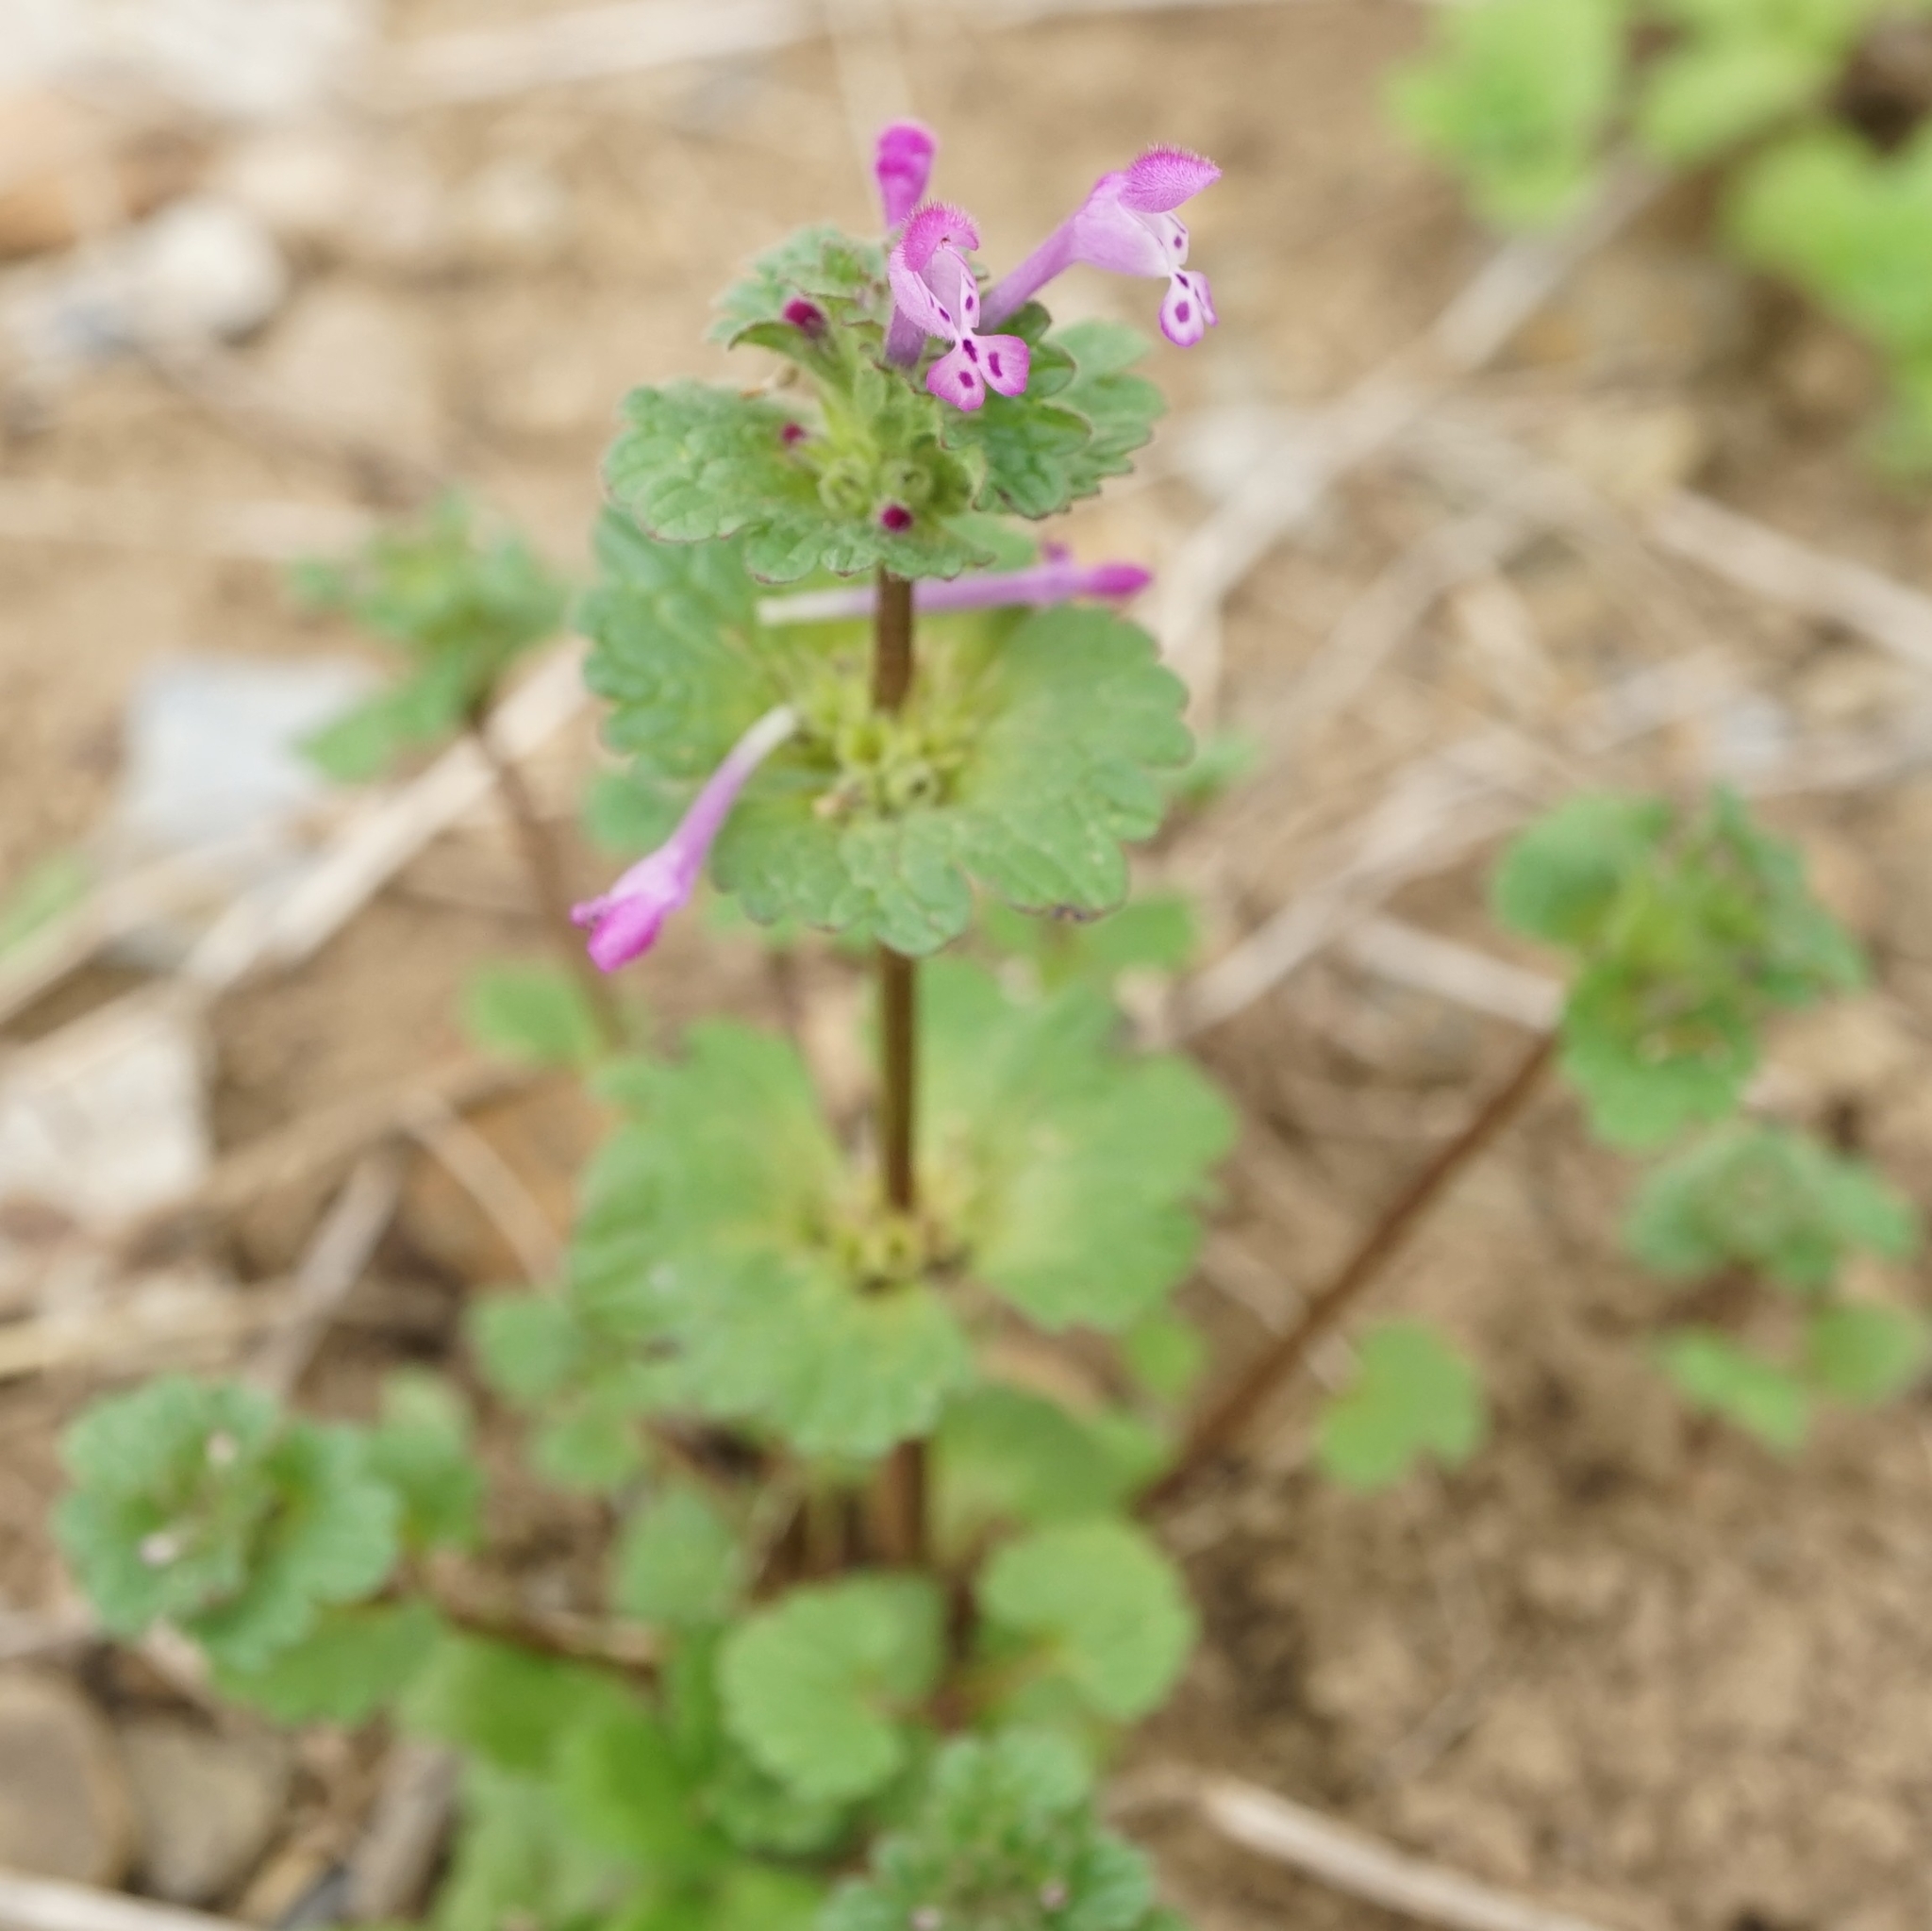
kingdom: Plantae
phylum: Tracheophyta
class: Magnoliopsida
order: Lamiales
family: Lamiaceae
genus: Lamium
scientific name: Lamium amplexicaule
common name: Henbit dead-nettle
